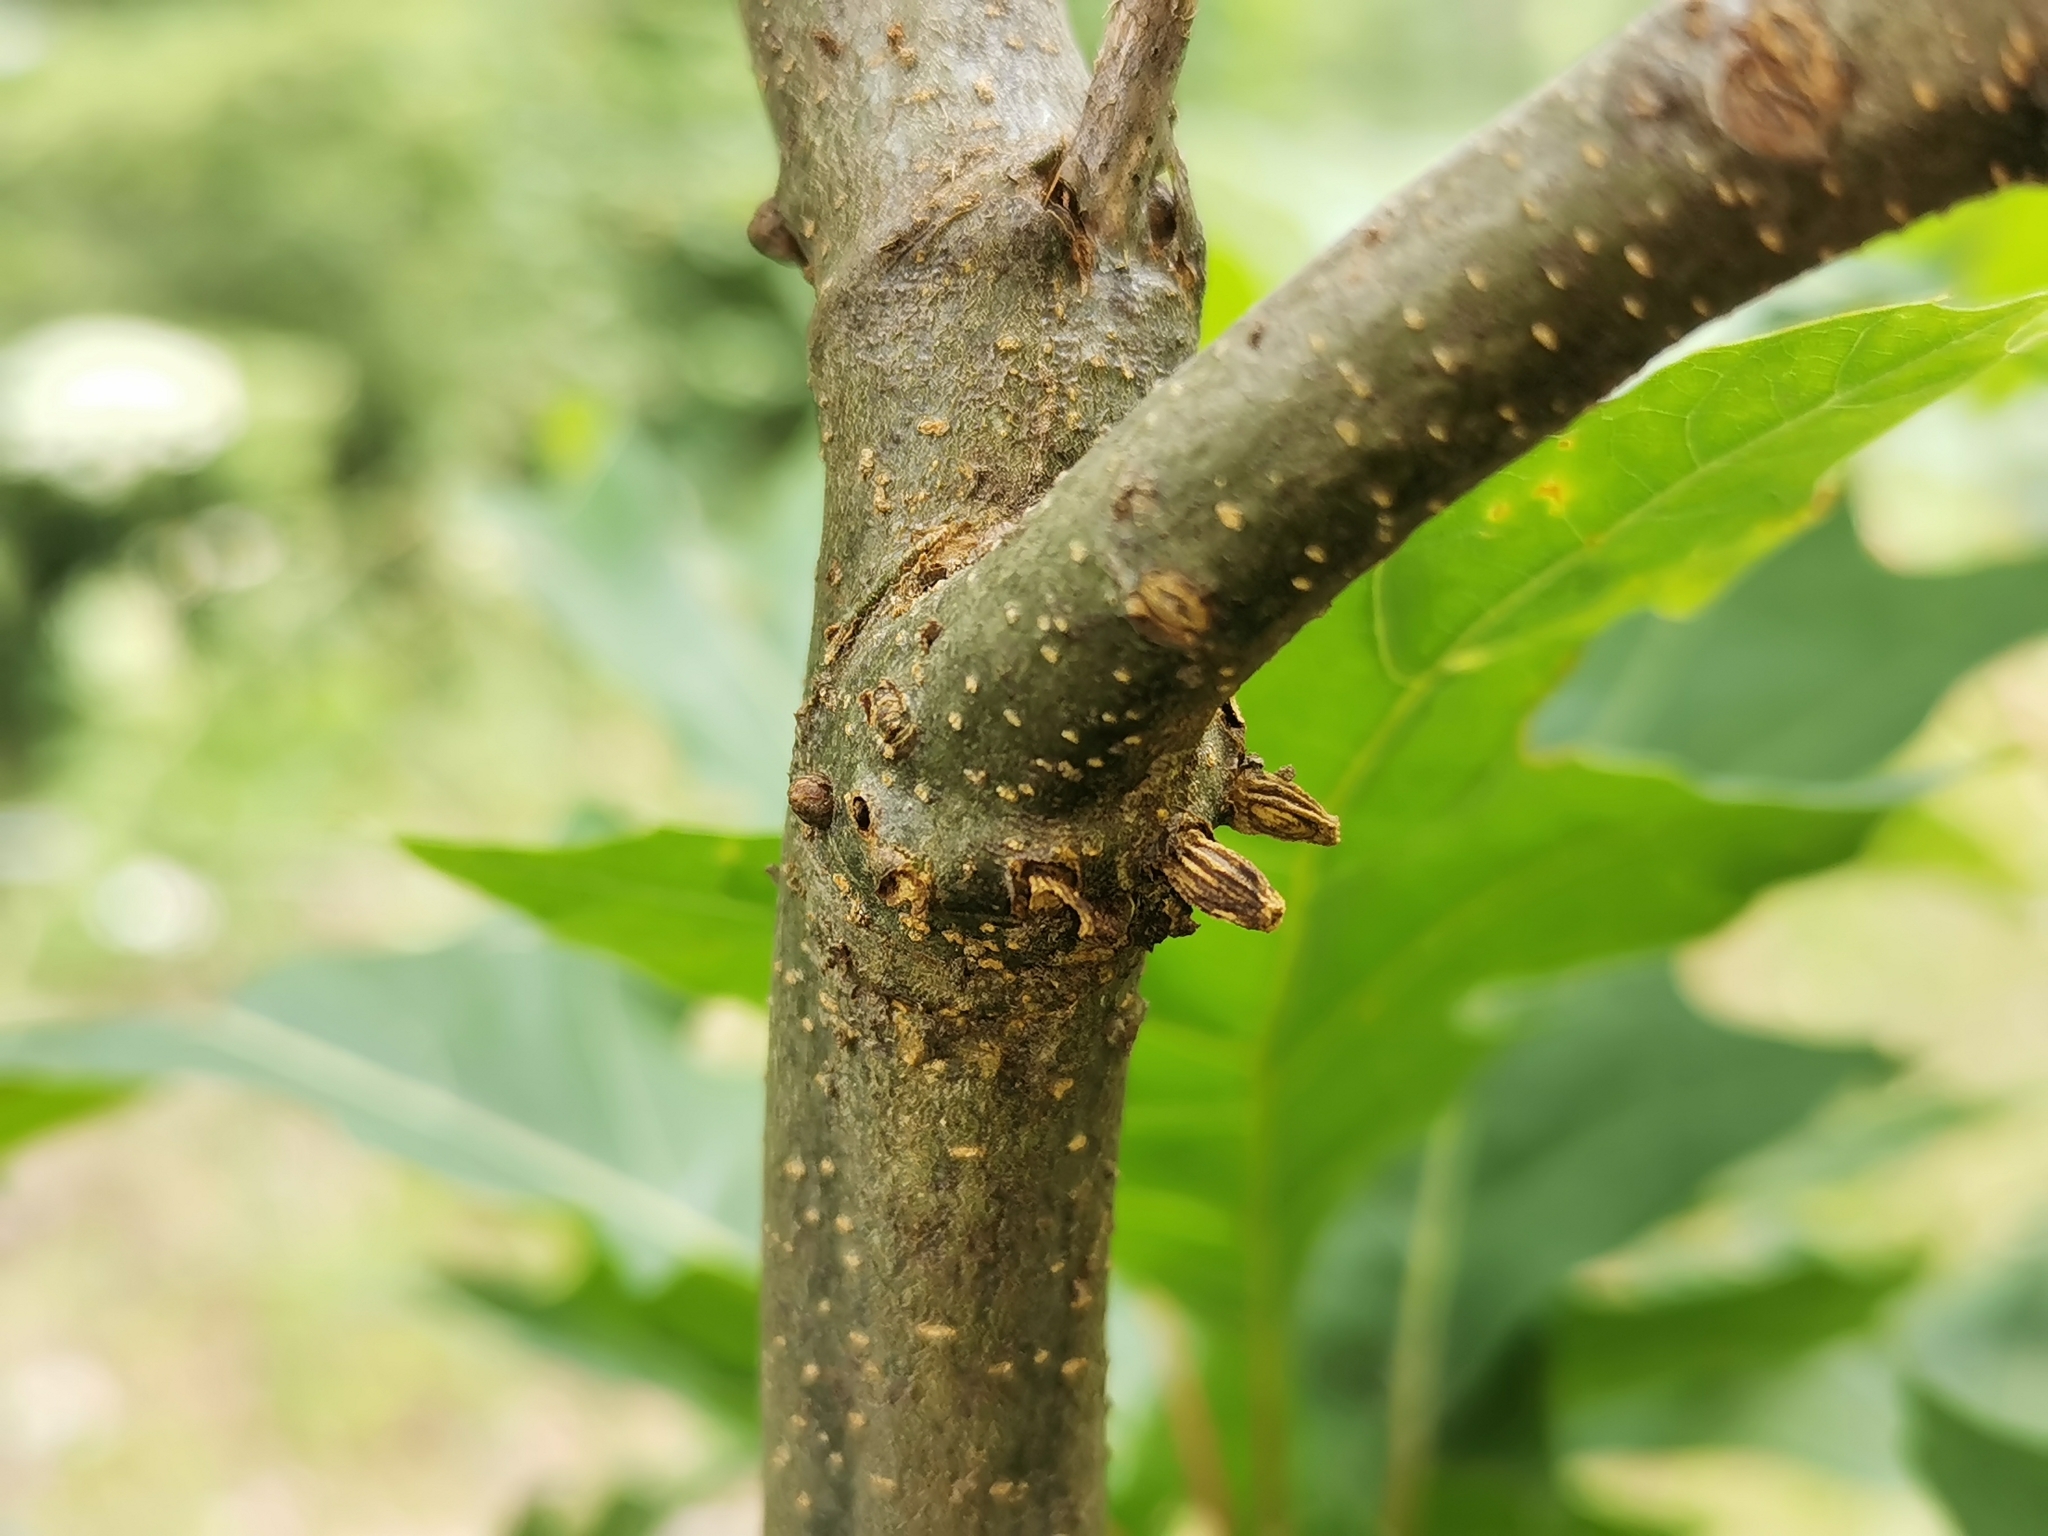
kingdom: Animalia
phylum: Arthropoda
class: Insecta
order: Hymenoptera
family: Cynipidae
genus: Callirhytis
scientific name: Callirhytis
